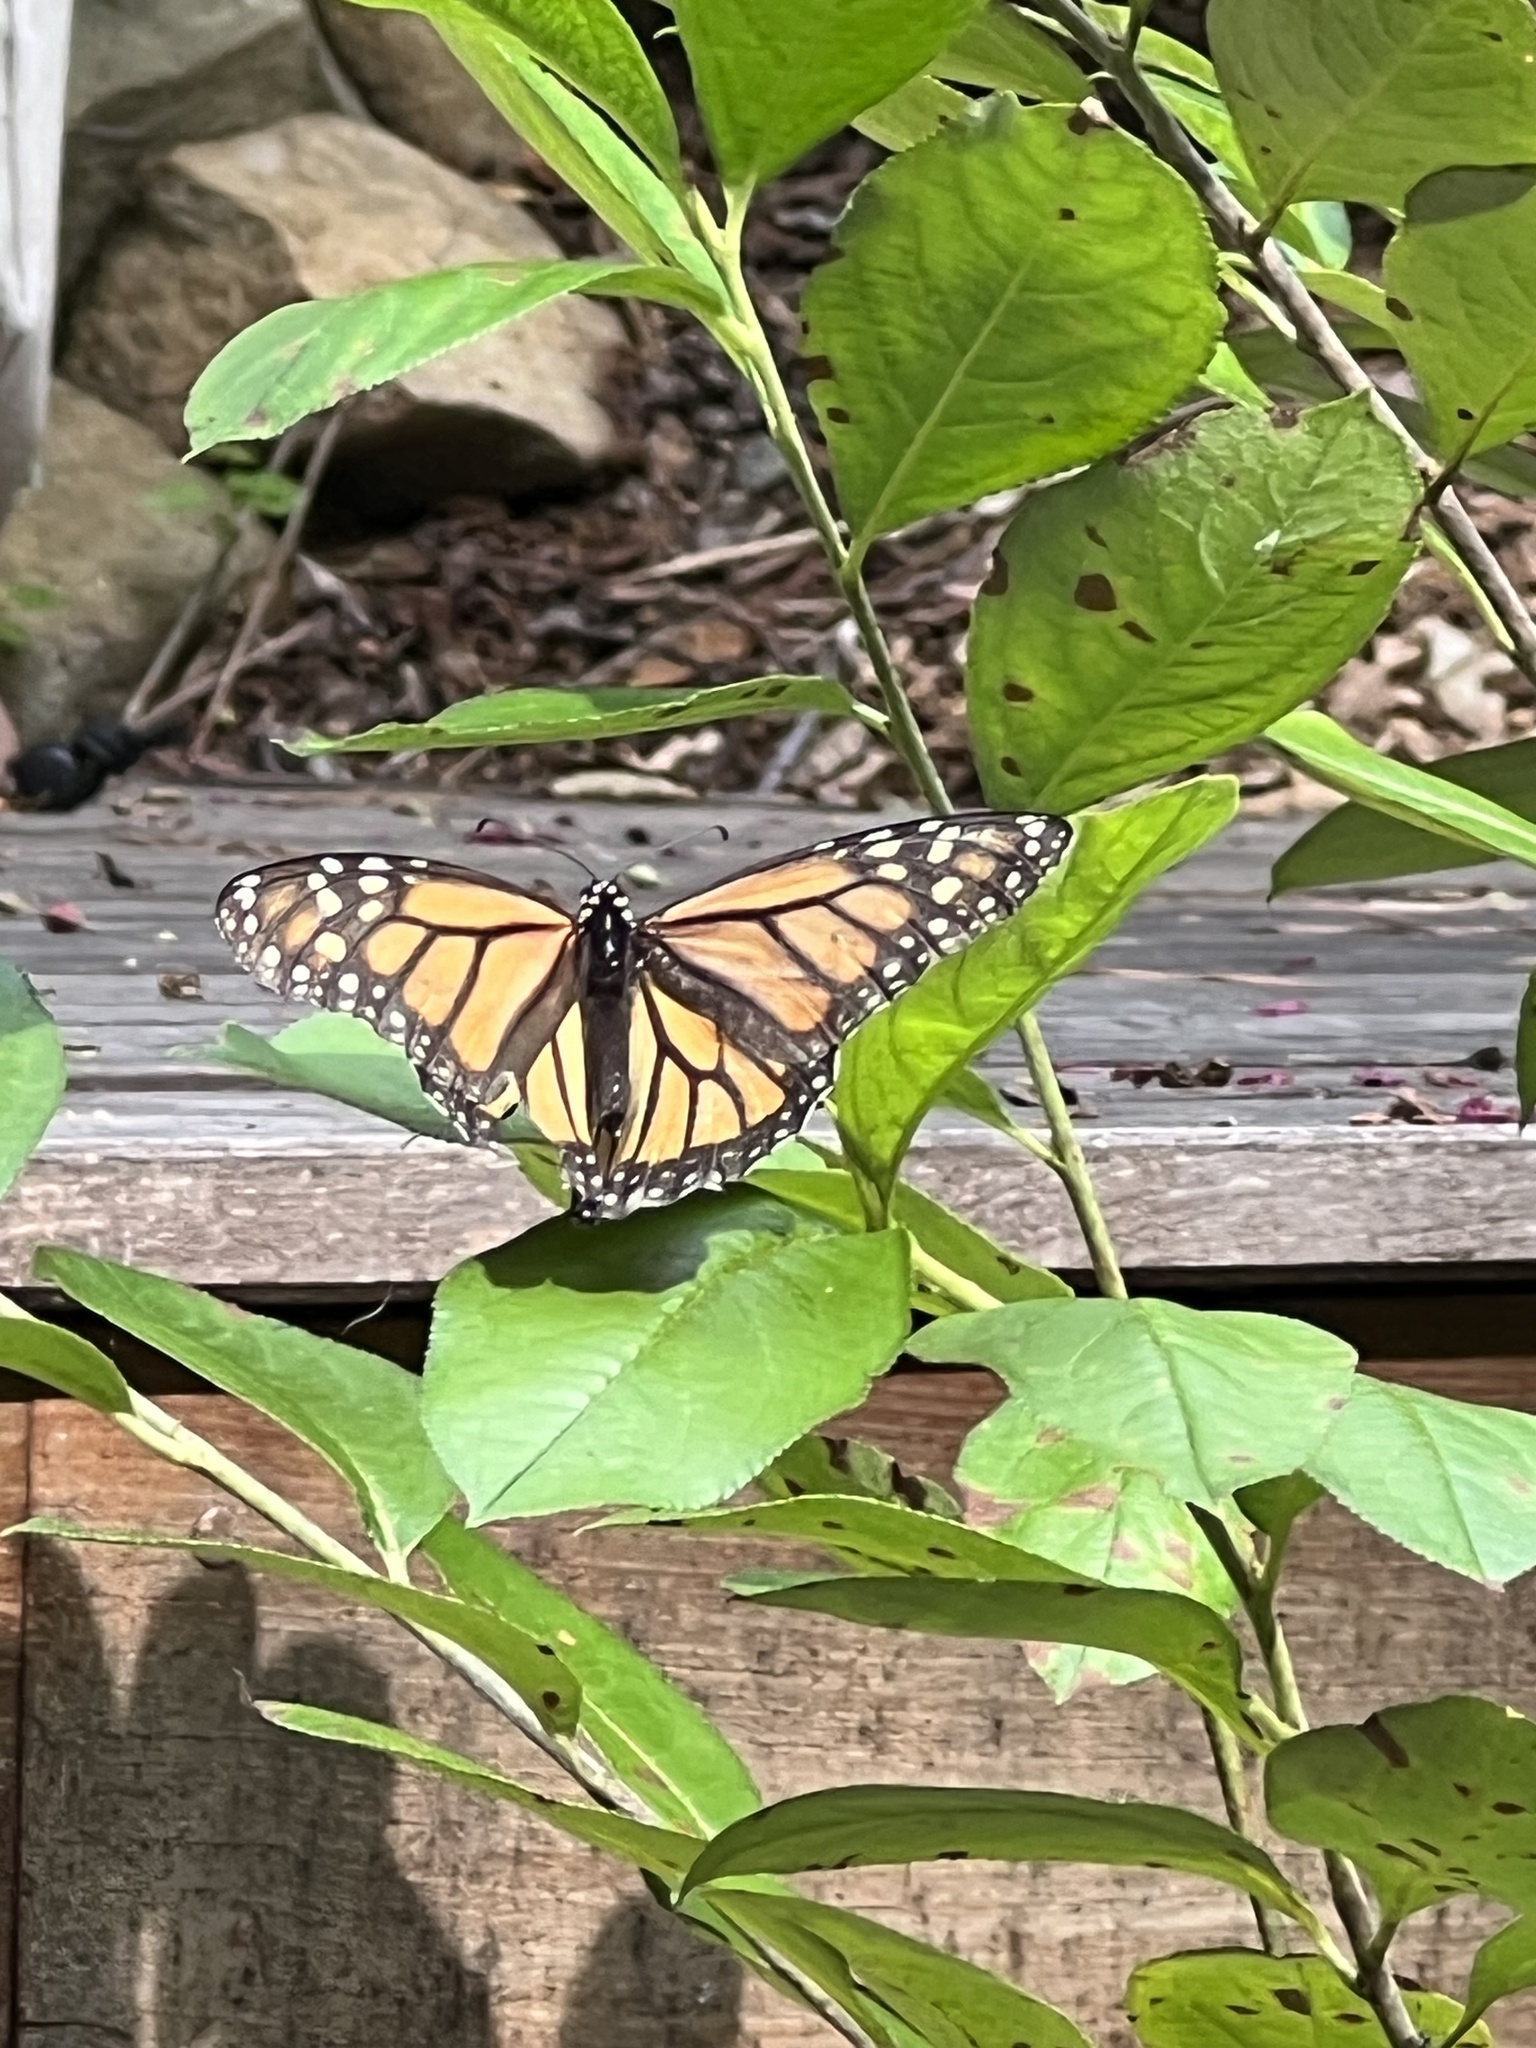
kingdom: Animalia
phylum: Arthropoda
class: Insecta
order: Lepidoptera
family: Nymphalidae
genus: Danaus
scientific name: Danaus plexippus
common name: Monarch
